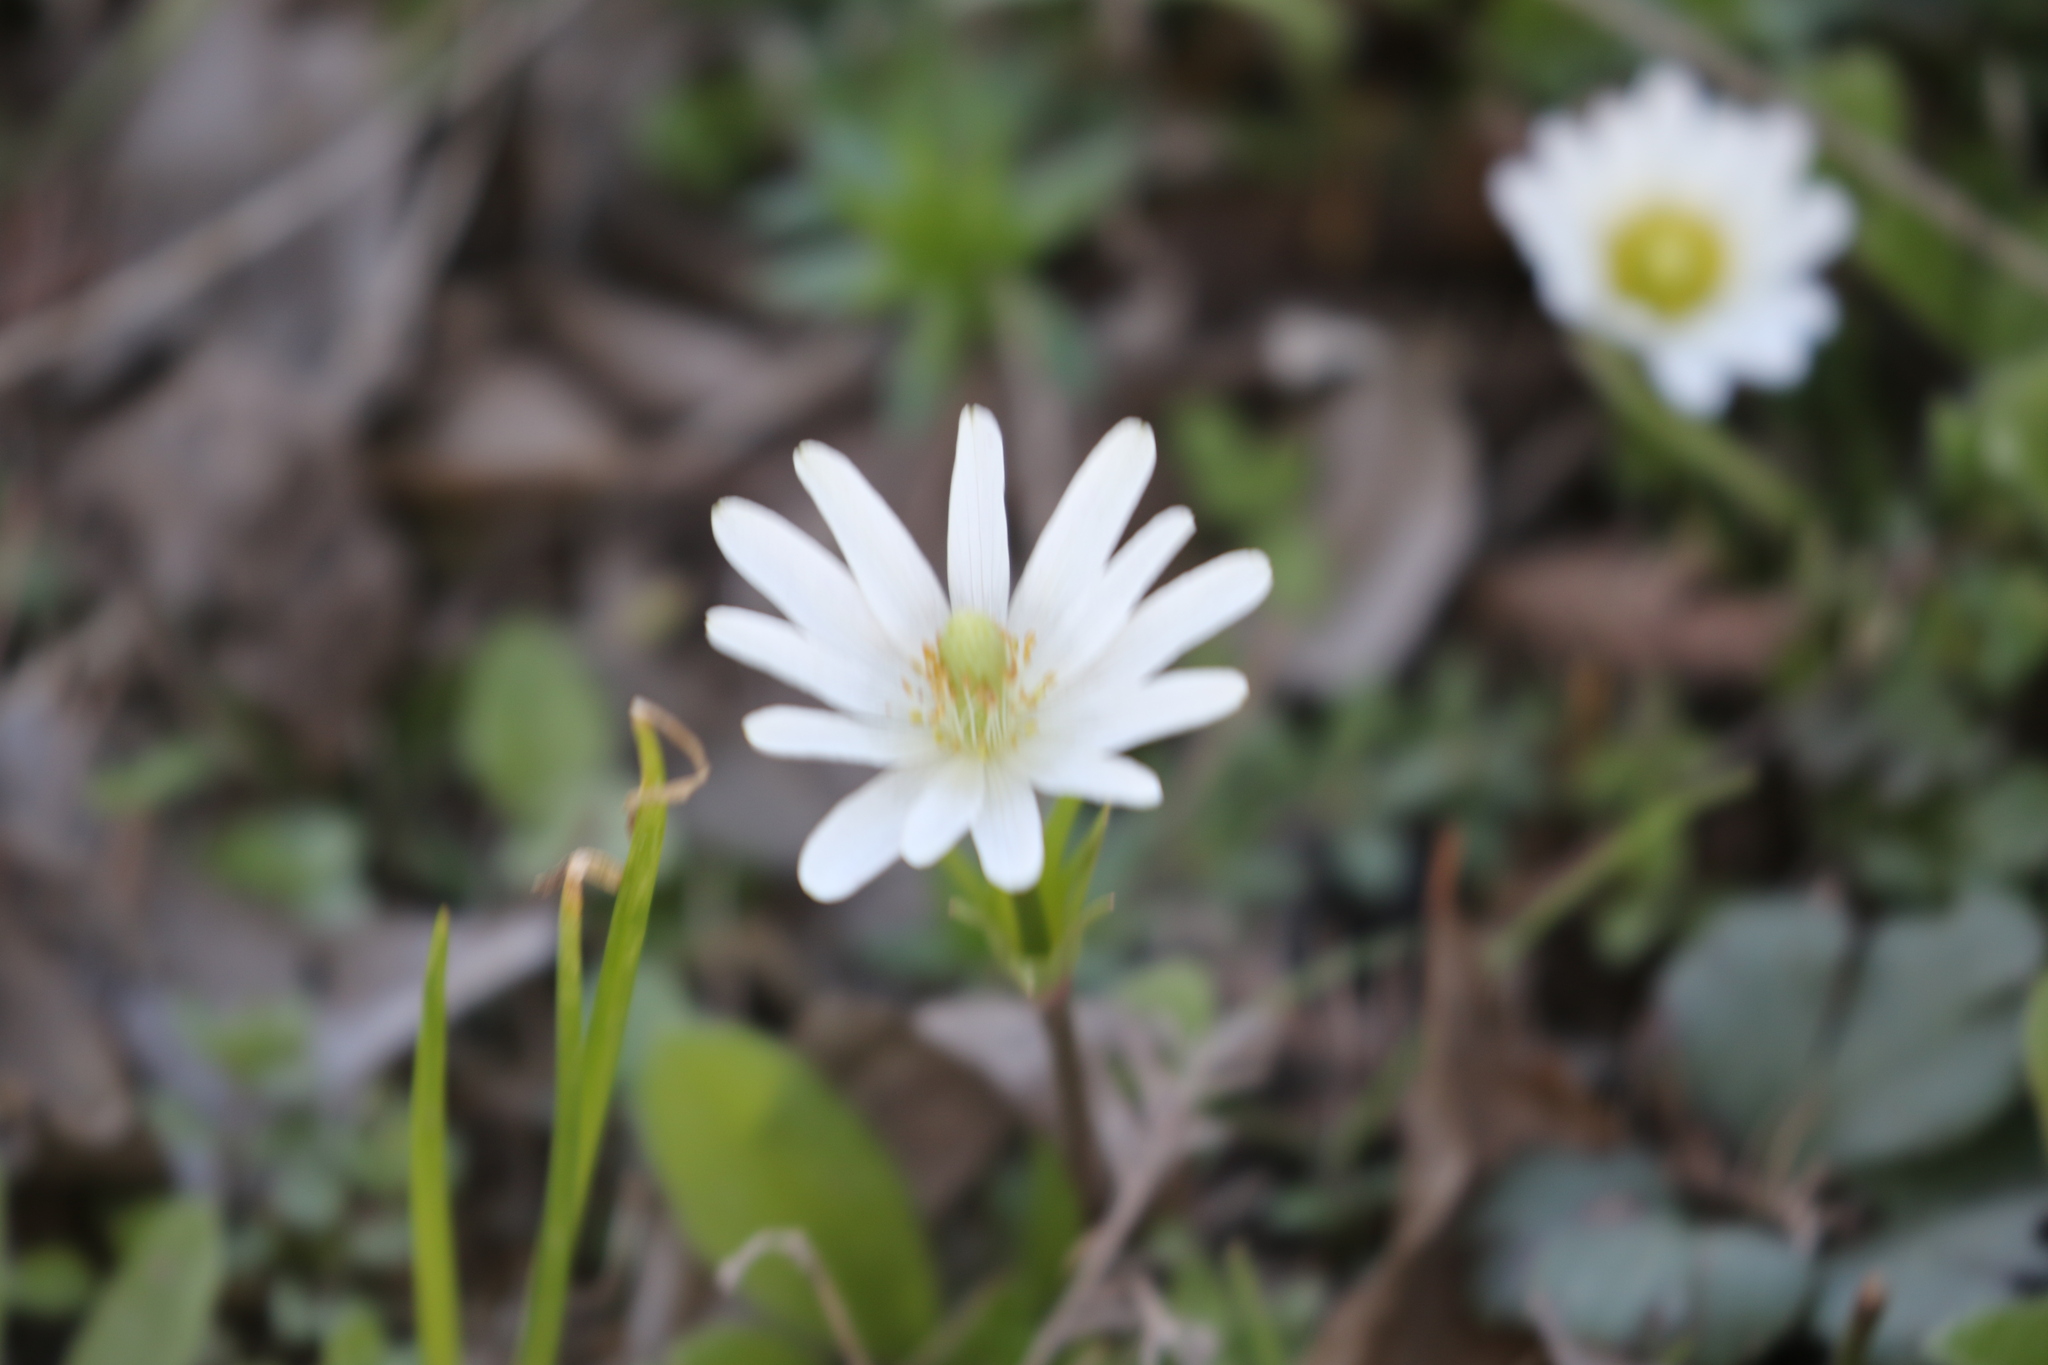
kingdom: Plantae
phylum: Tracheophyta
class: Magnoliopsida
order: Ranunculales
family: Ranunculaceae
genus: Anemone
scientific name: Anemone berlandieri
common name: Ten-petal anemone
